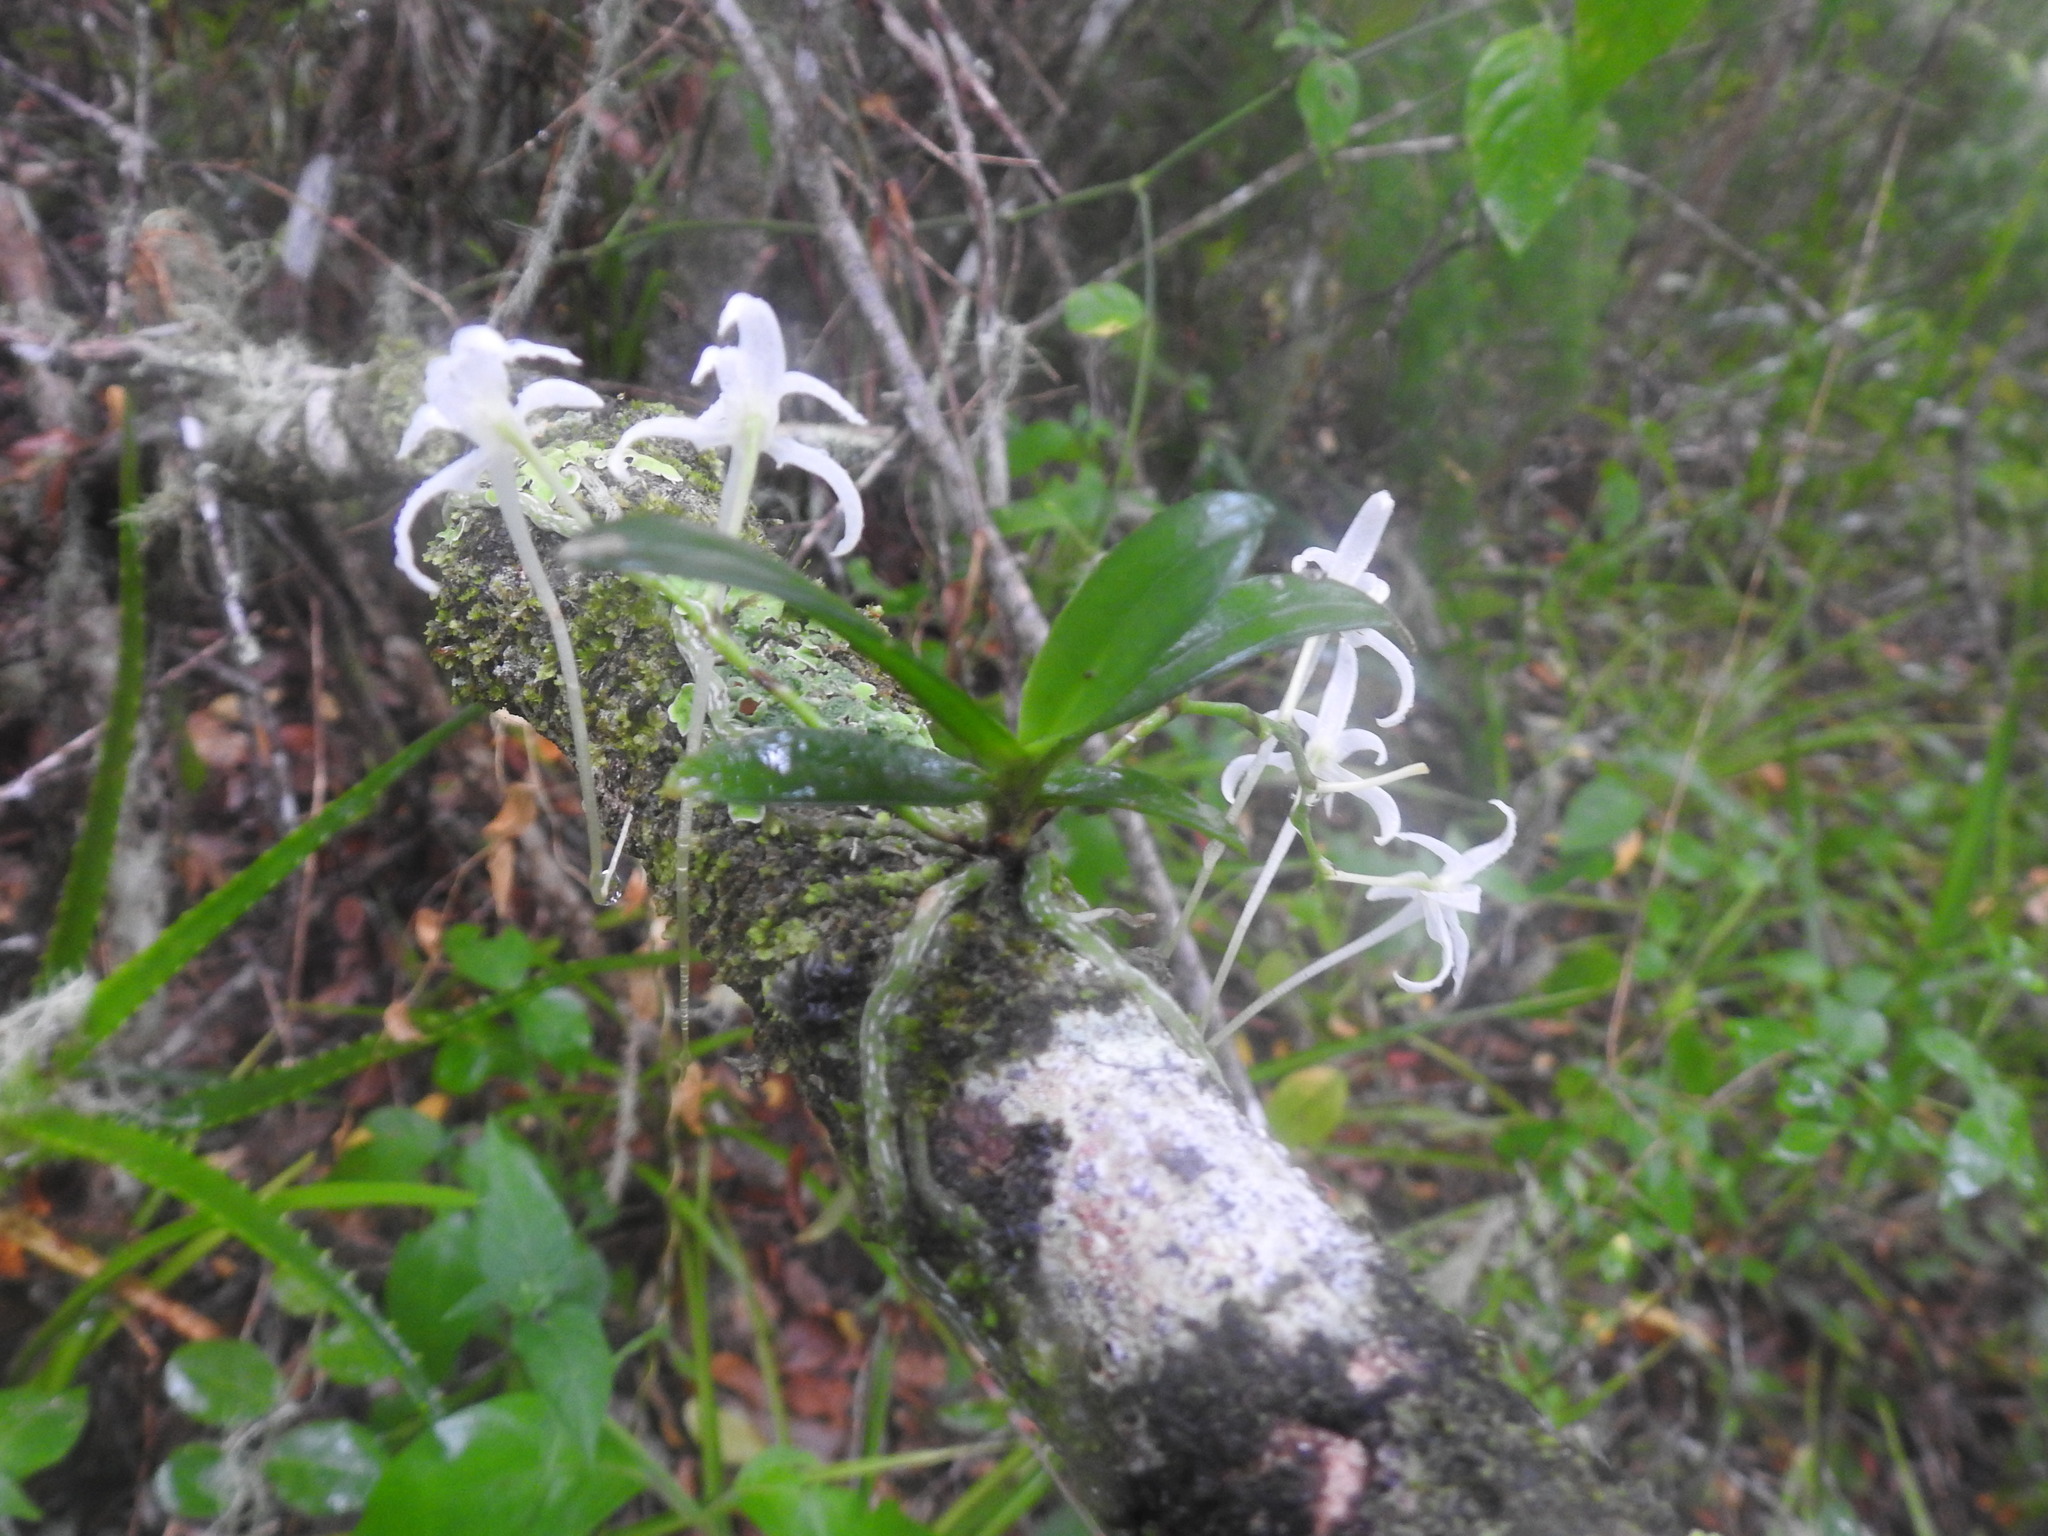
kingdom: Plantae
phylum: Tracheophyta
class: Liliopsida
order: Asparagales
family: Orchidaceae
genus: Mystacidium
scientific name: Mystacidium capense
